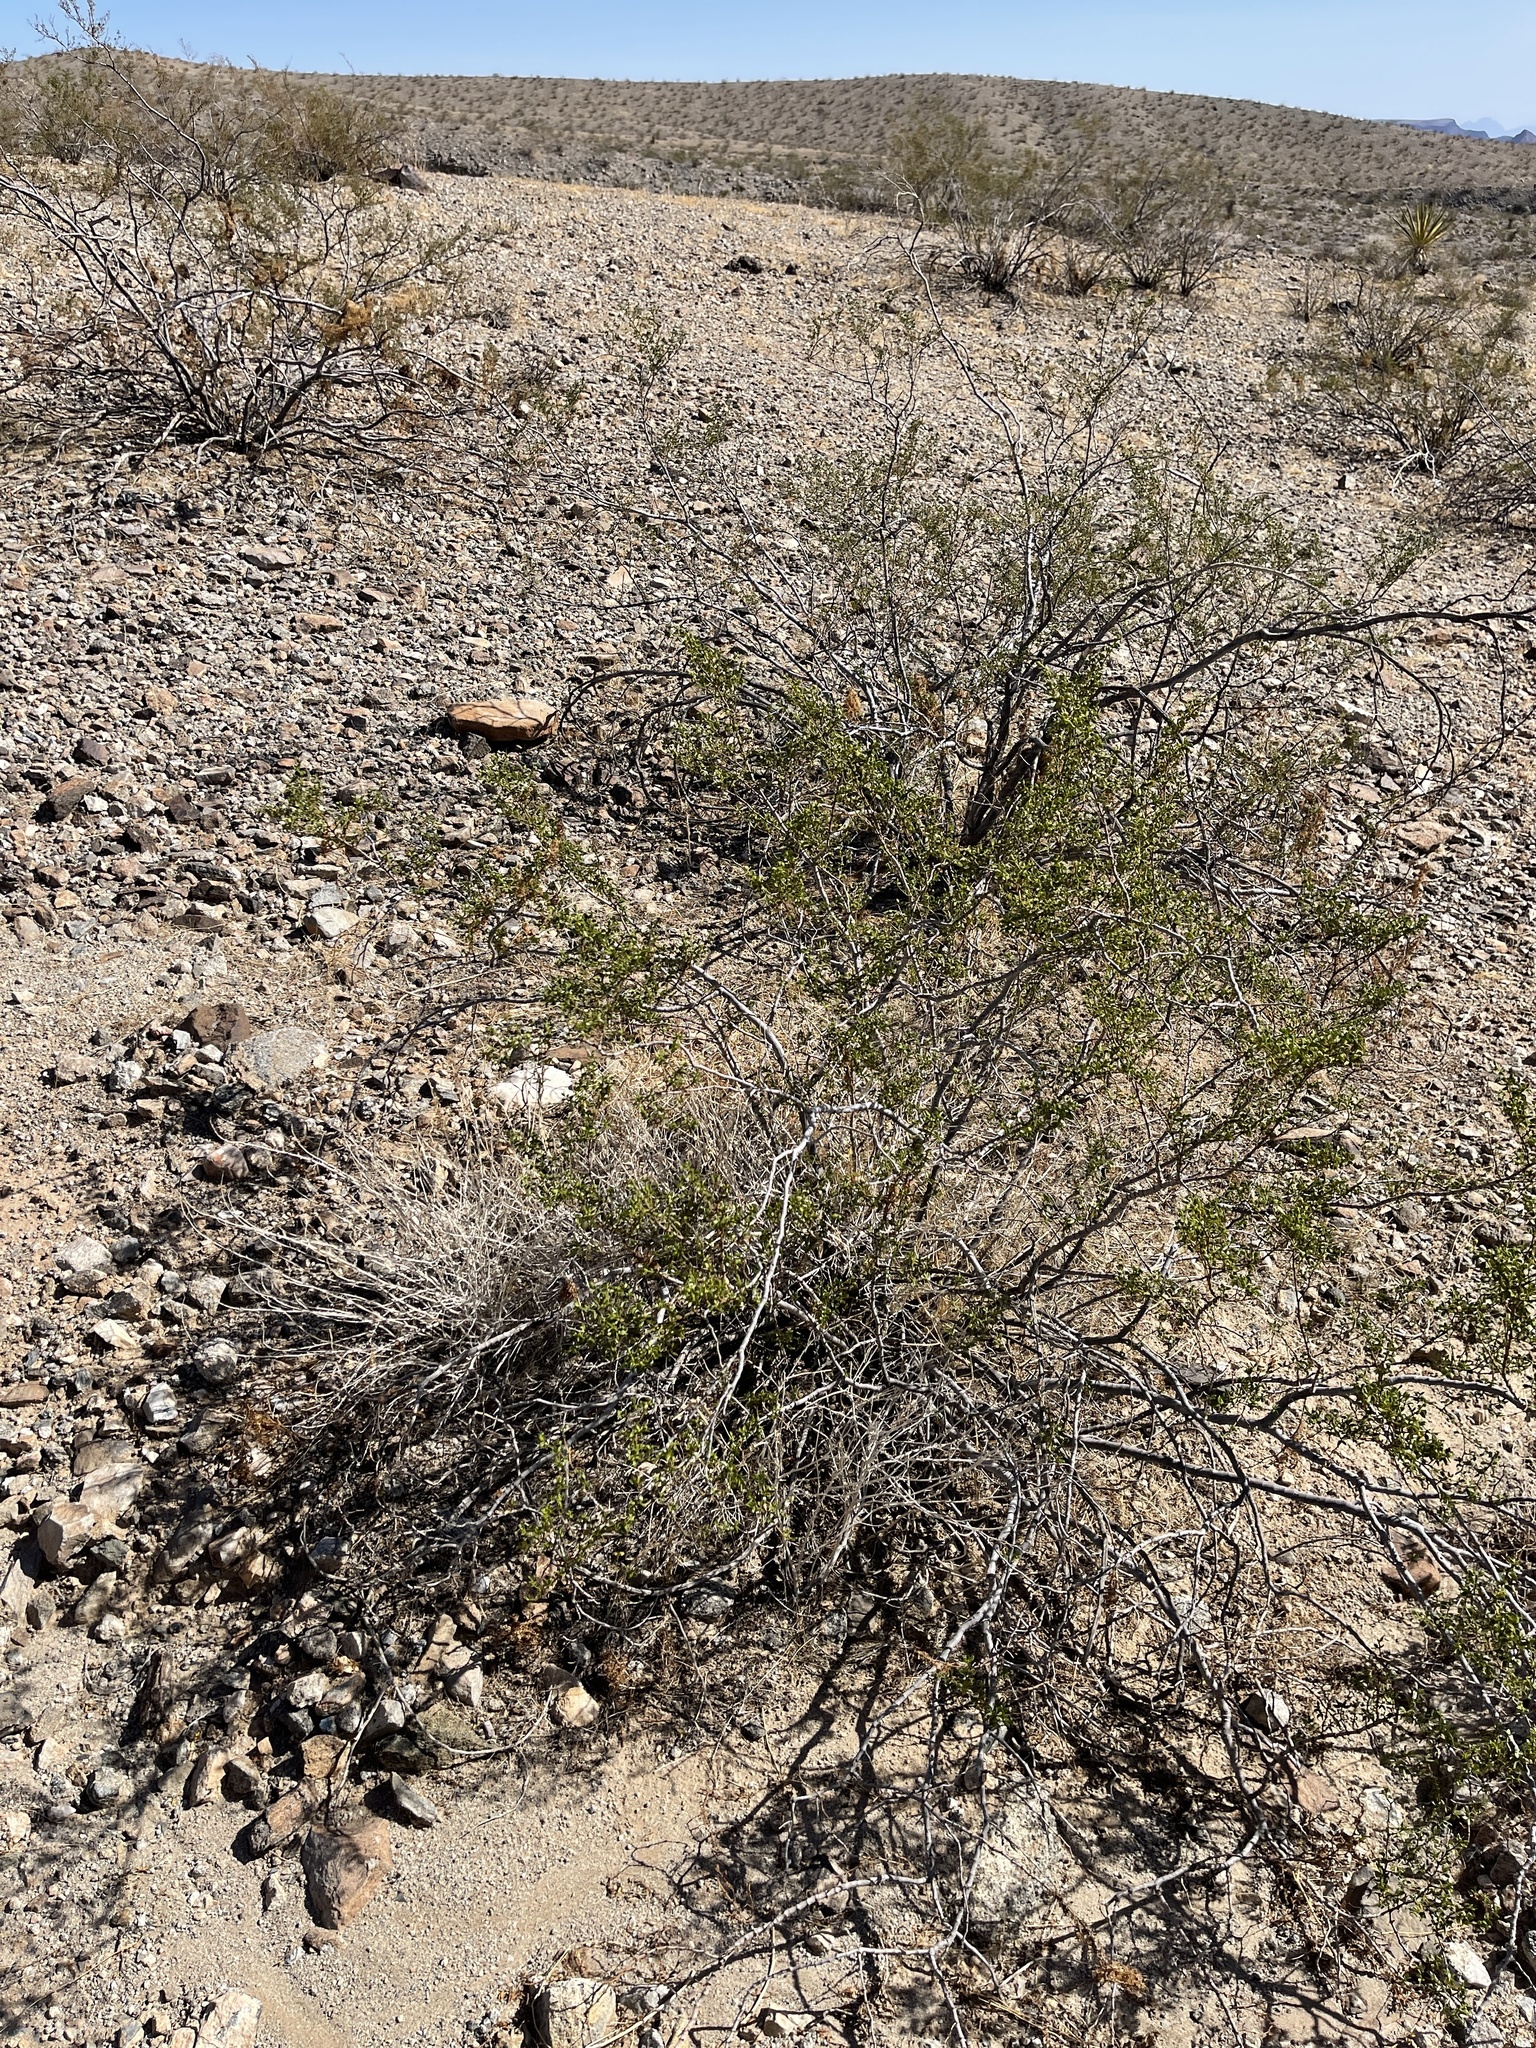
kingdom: Plantae
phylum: Tracheophyta
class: Magnoliopsida
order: Zygophyllales
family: Zygophyllaceae
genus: Larrea
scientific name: Larrea tridentata
